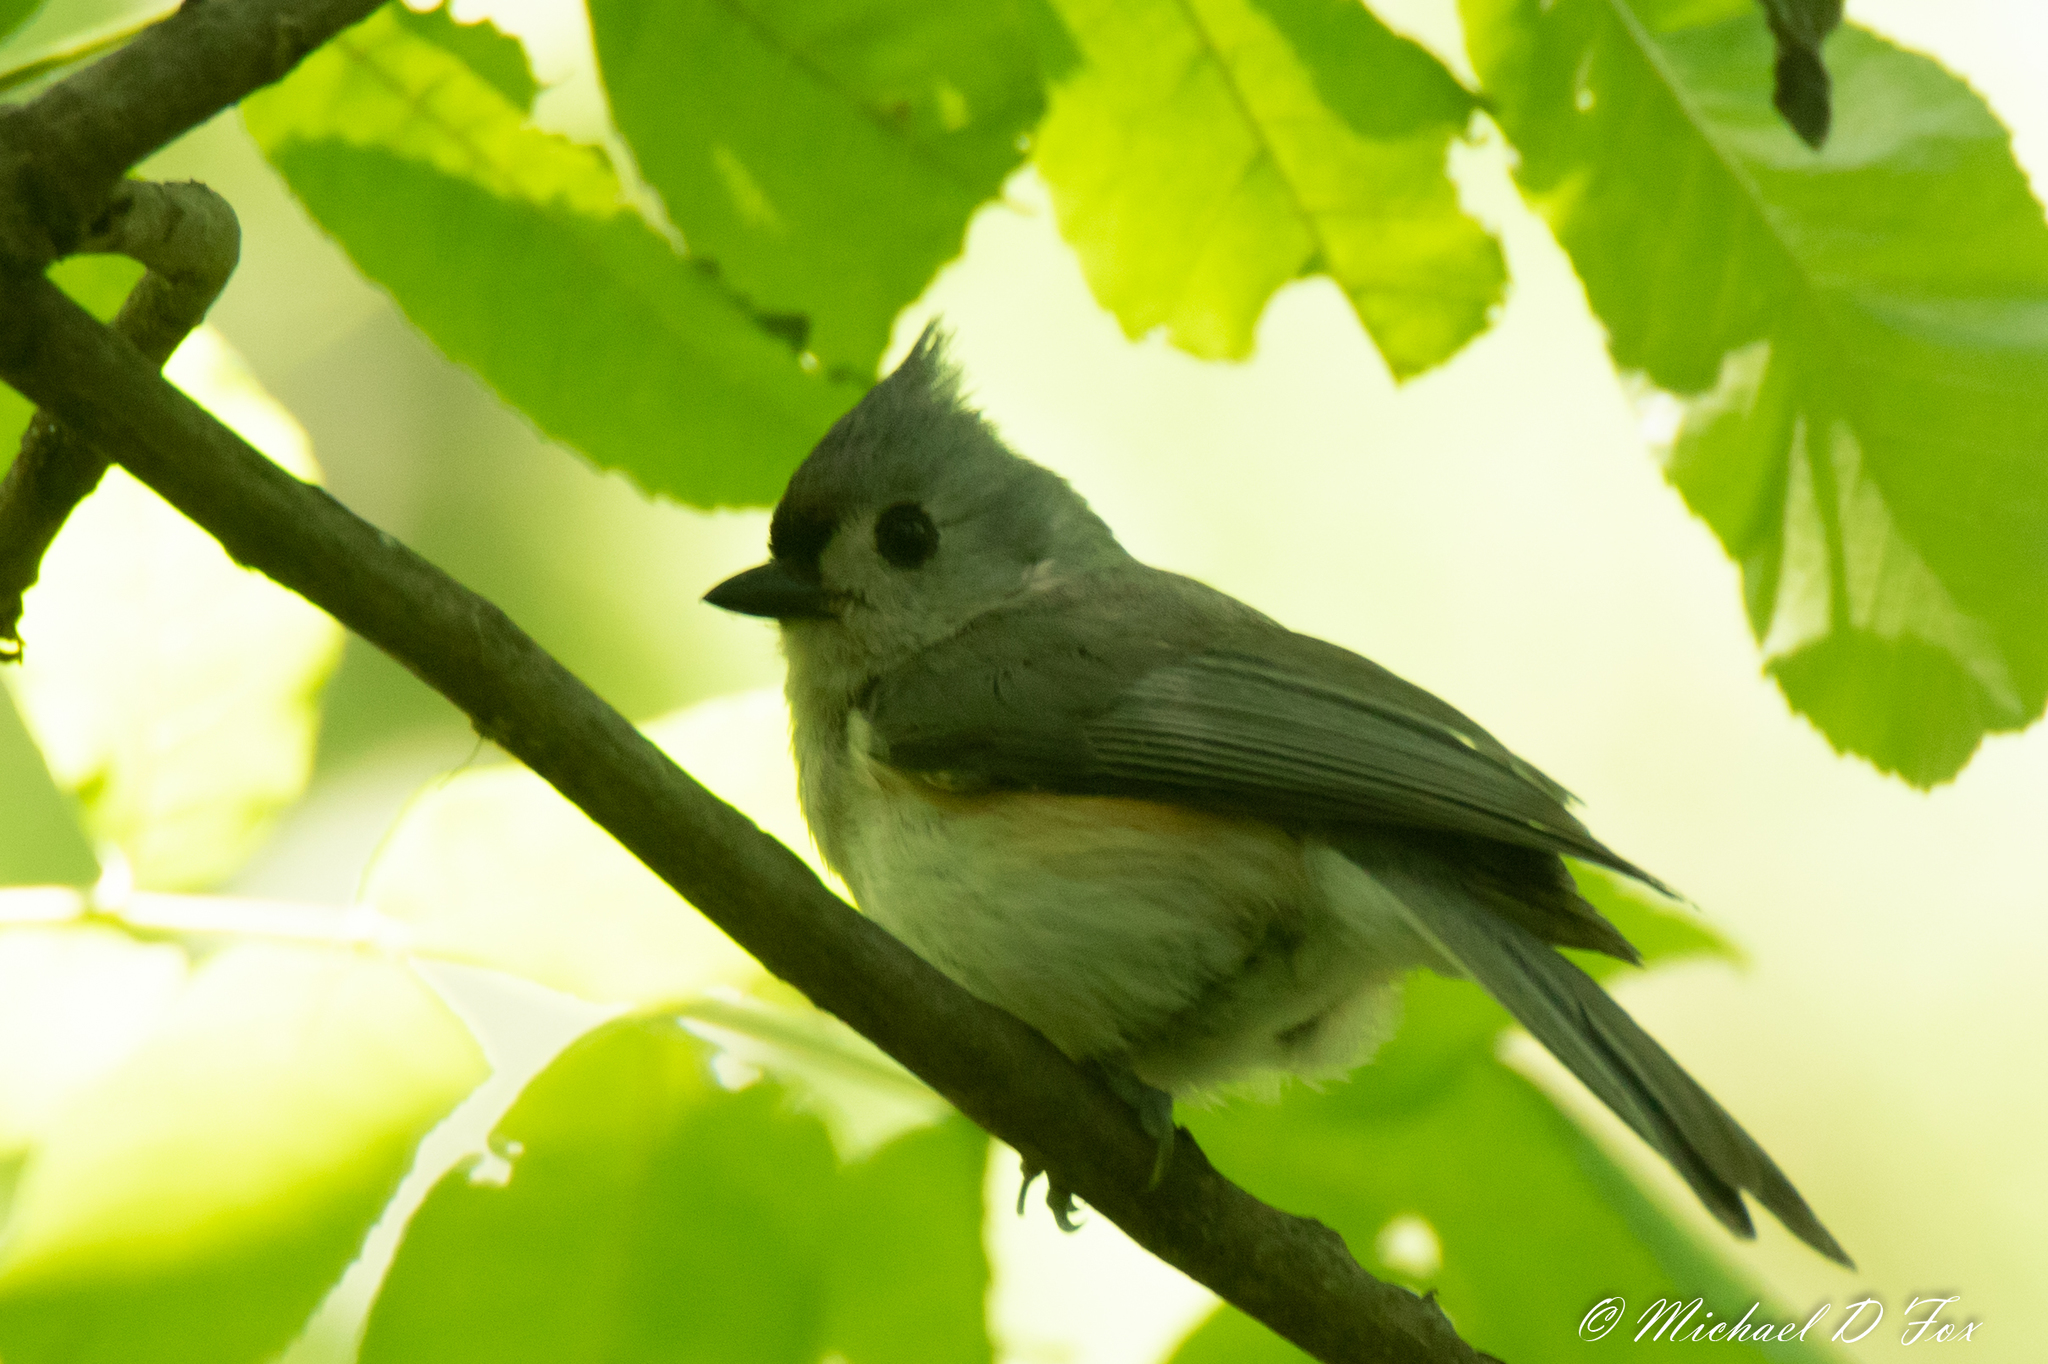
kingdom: Animalia
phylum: Chordata
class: Aves
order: Passeriformes
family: Paridae
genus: Baeolophus
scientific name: Baeolophus bicolor
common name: Tufted titmouse
